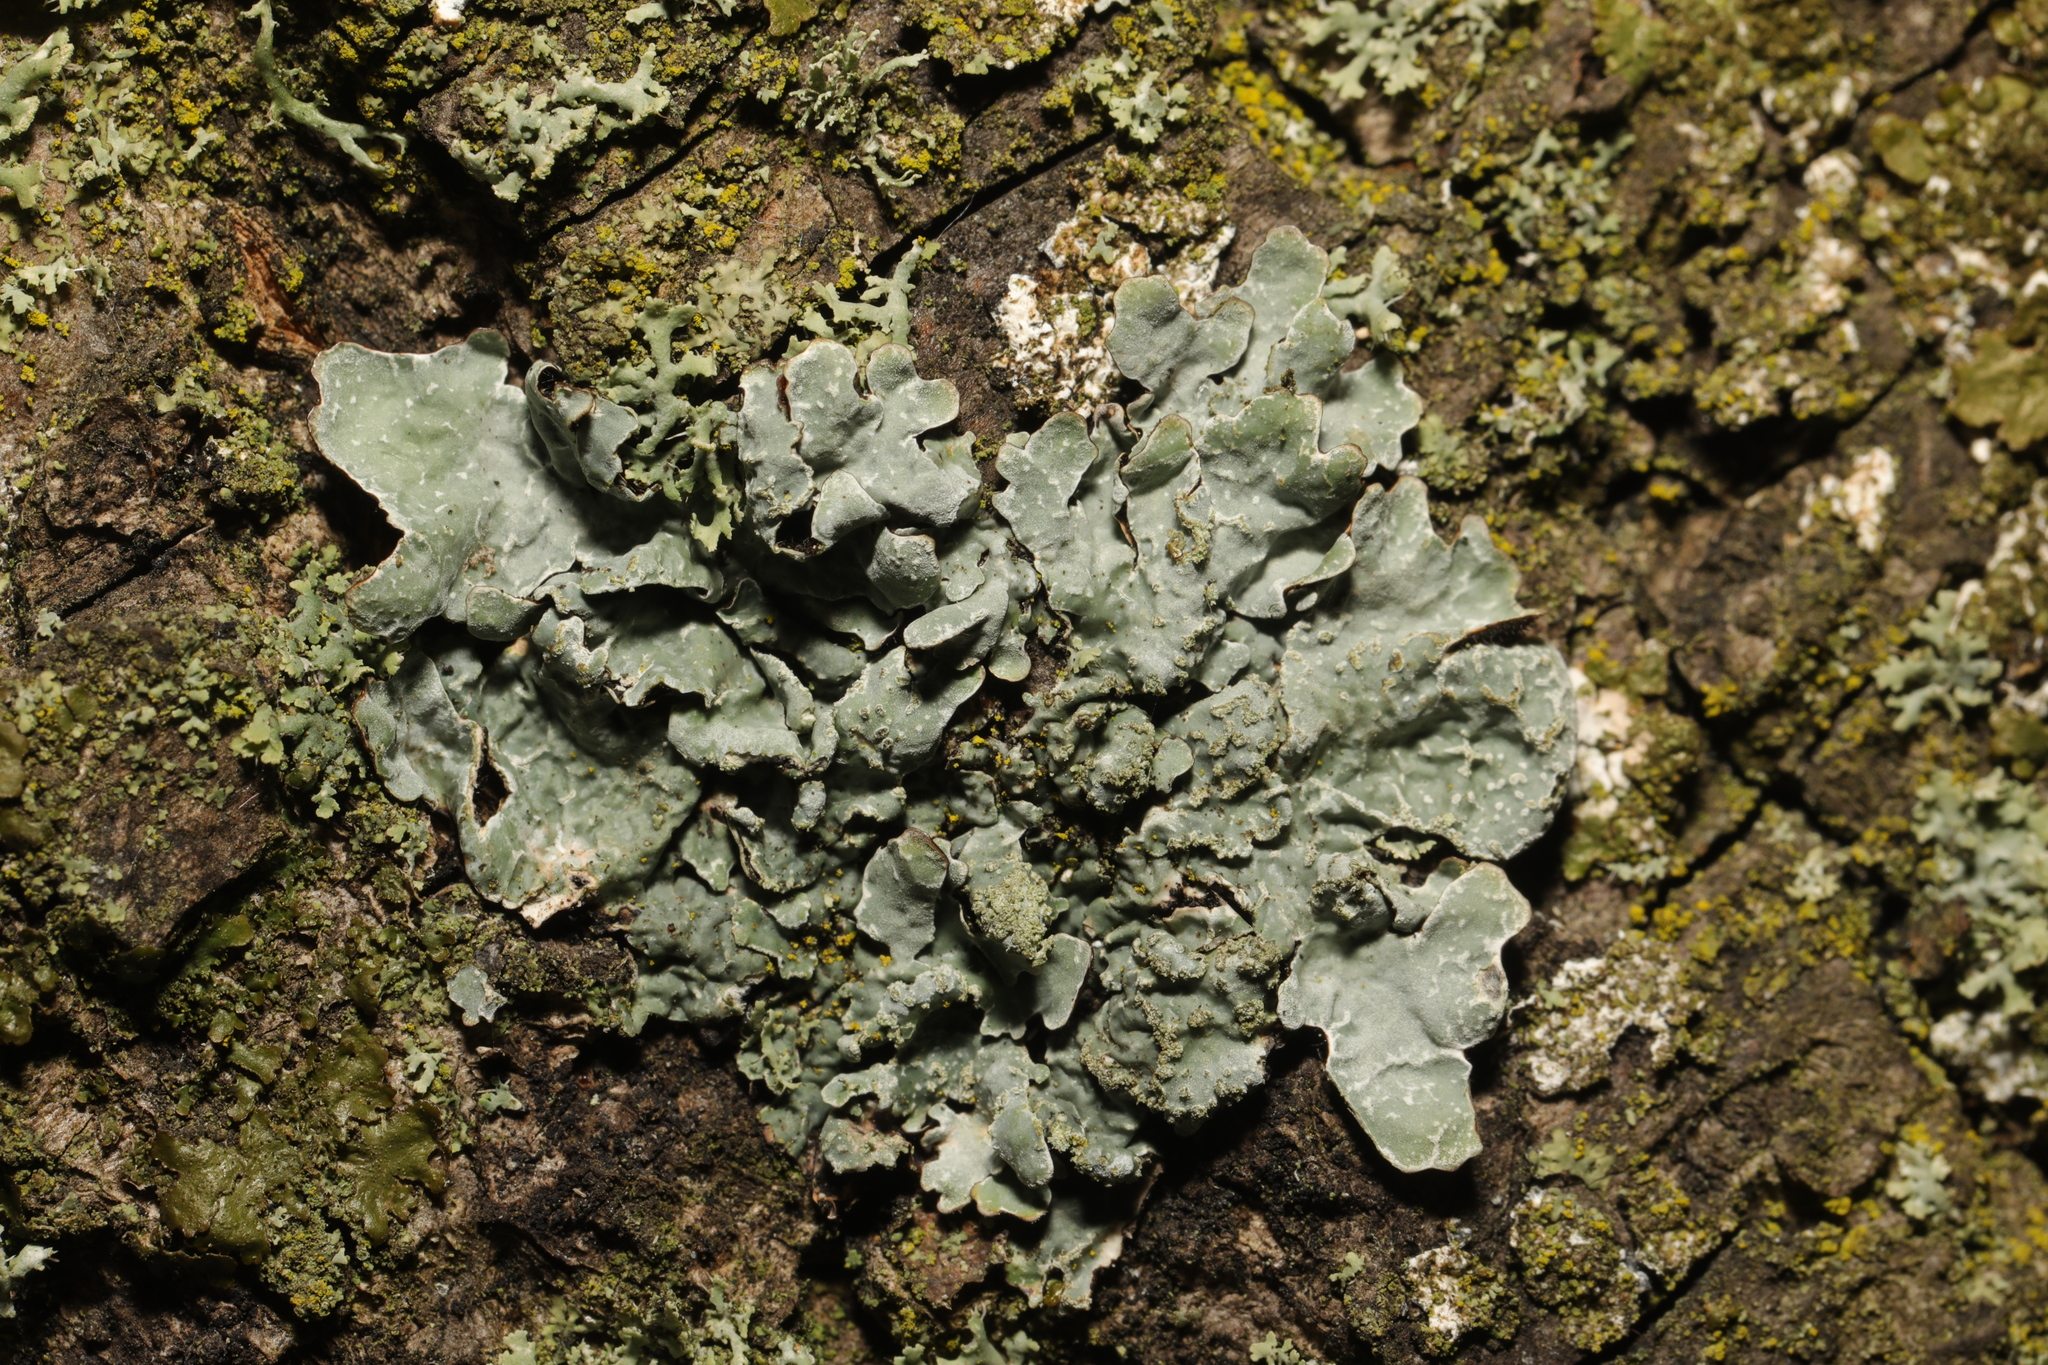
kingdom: Fungi
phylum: Ascomycota
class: Lecanoromycetes
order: Lecanorales
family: Parmeliaceae
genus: Parmelia
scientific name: Parmelia sulcata
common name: Netted shield lichen
